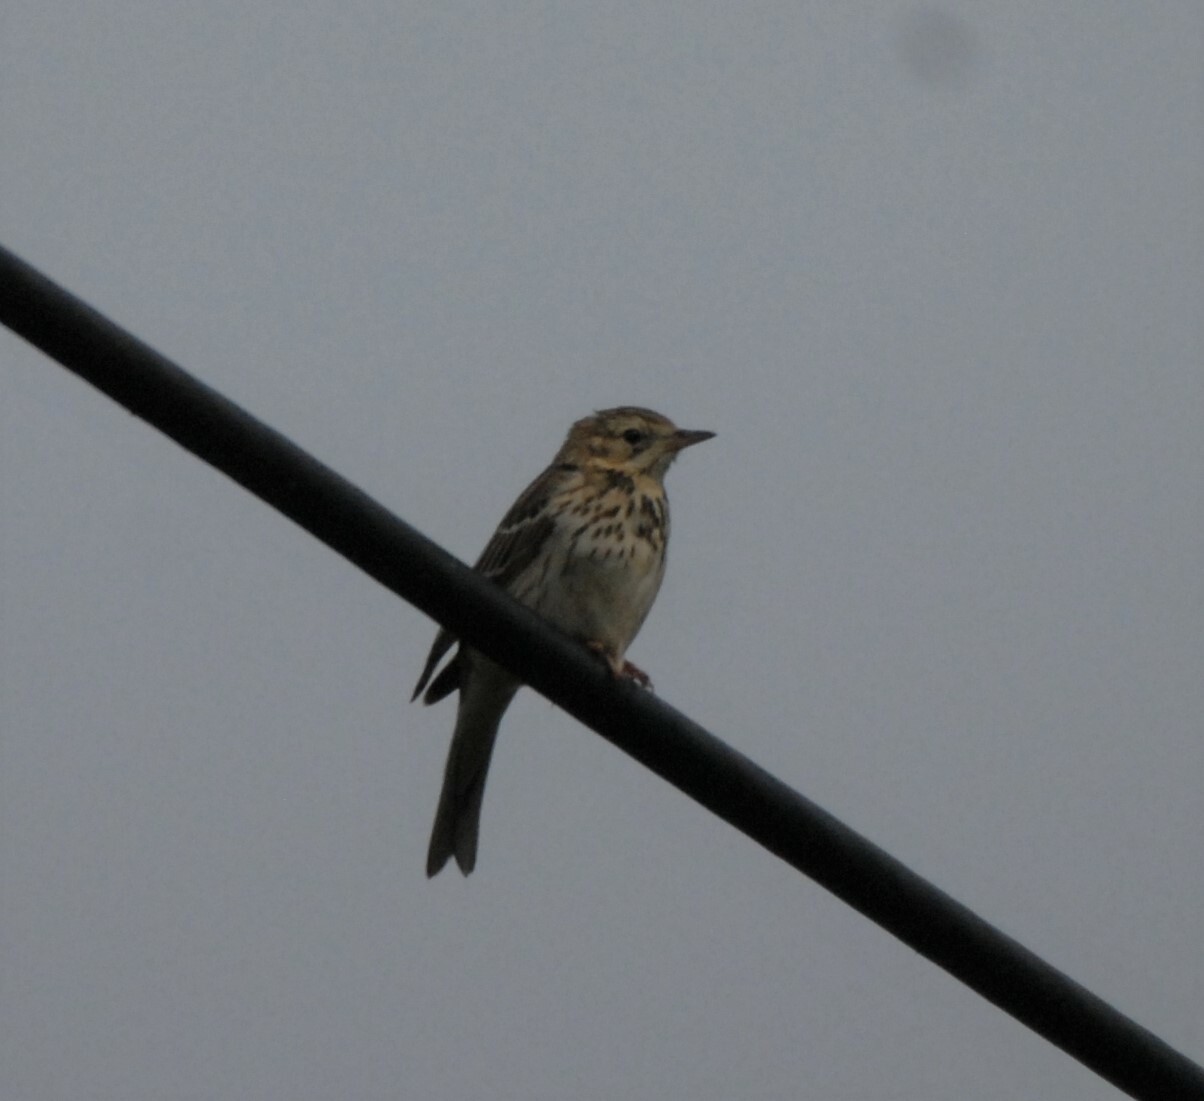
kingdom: Animalia
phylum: Chordata
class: Aves
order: Passeriformes
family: Motacillidae
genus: Anthus
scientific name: Anthus trivialis
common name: Tree pipit
